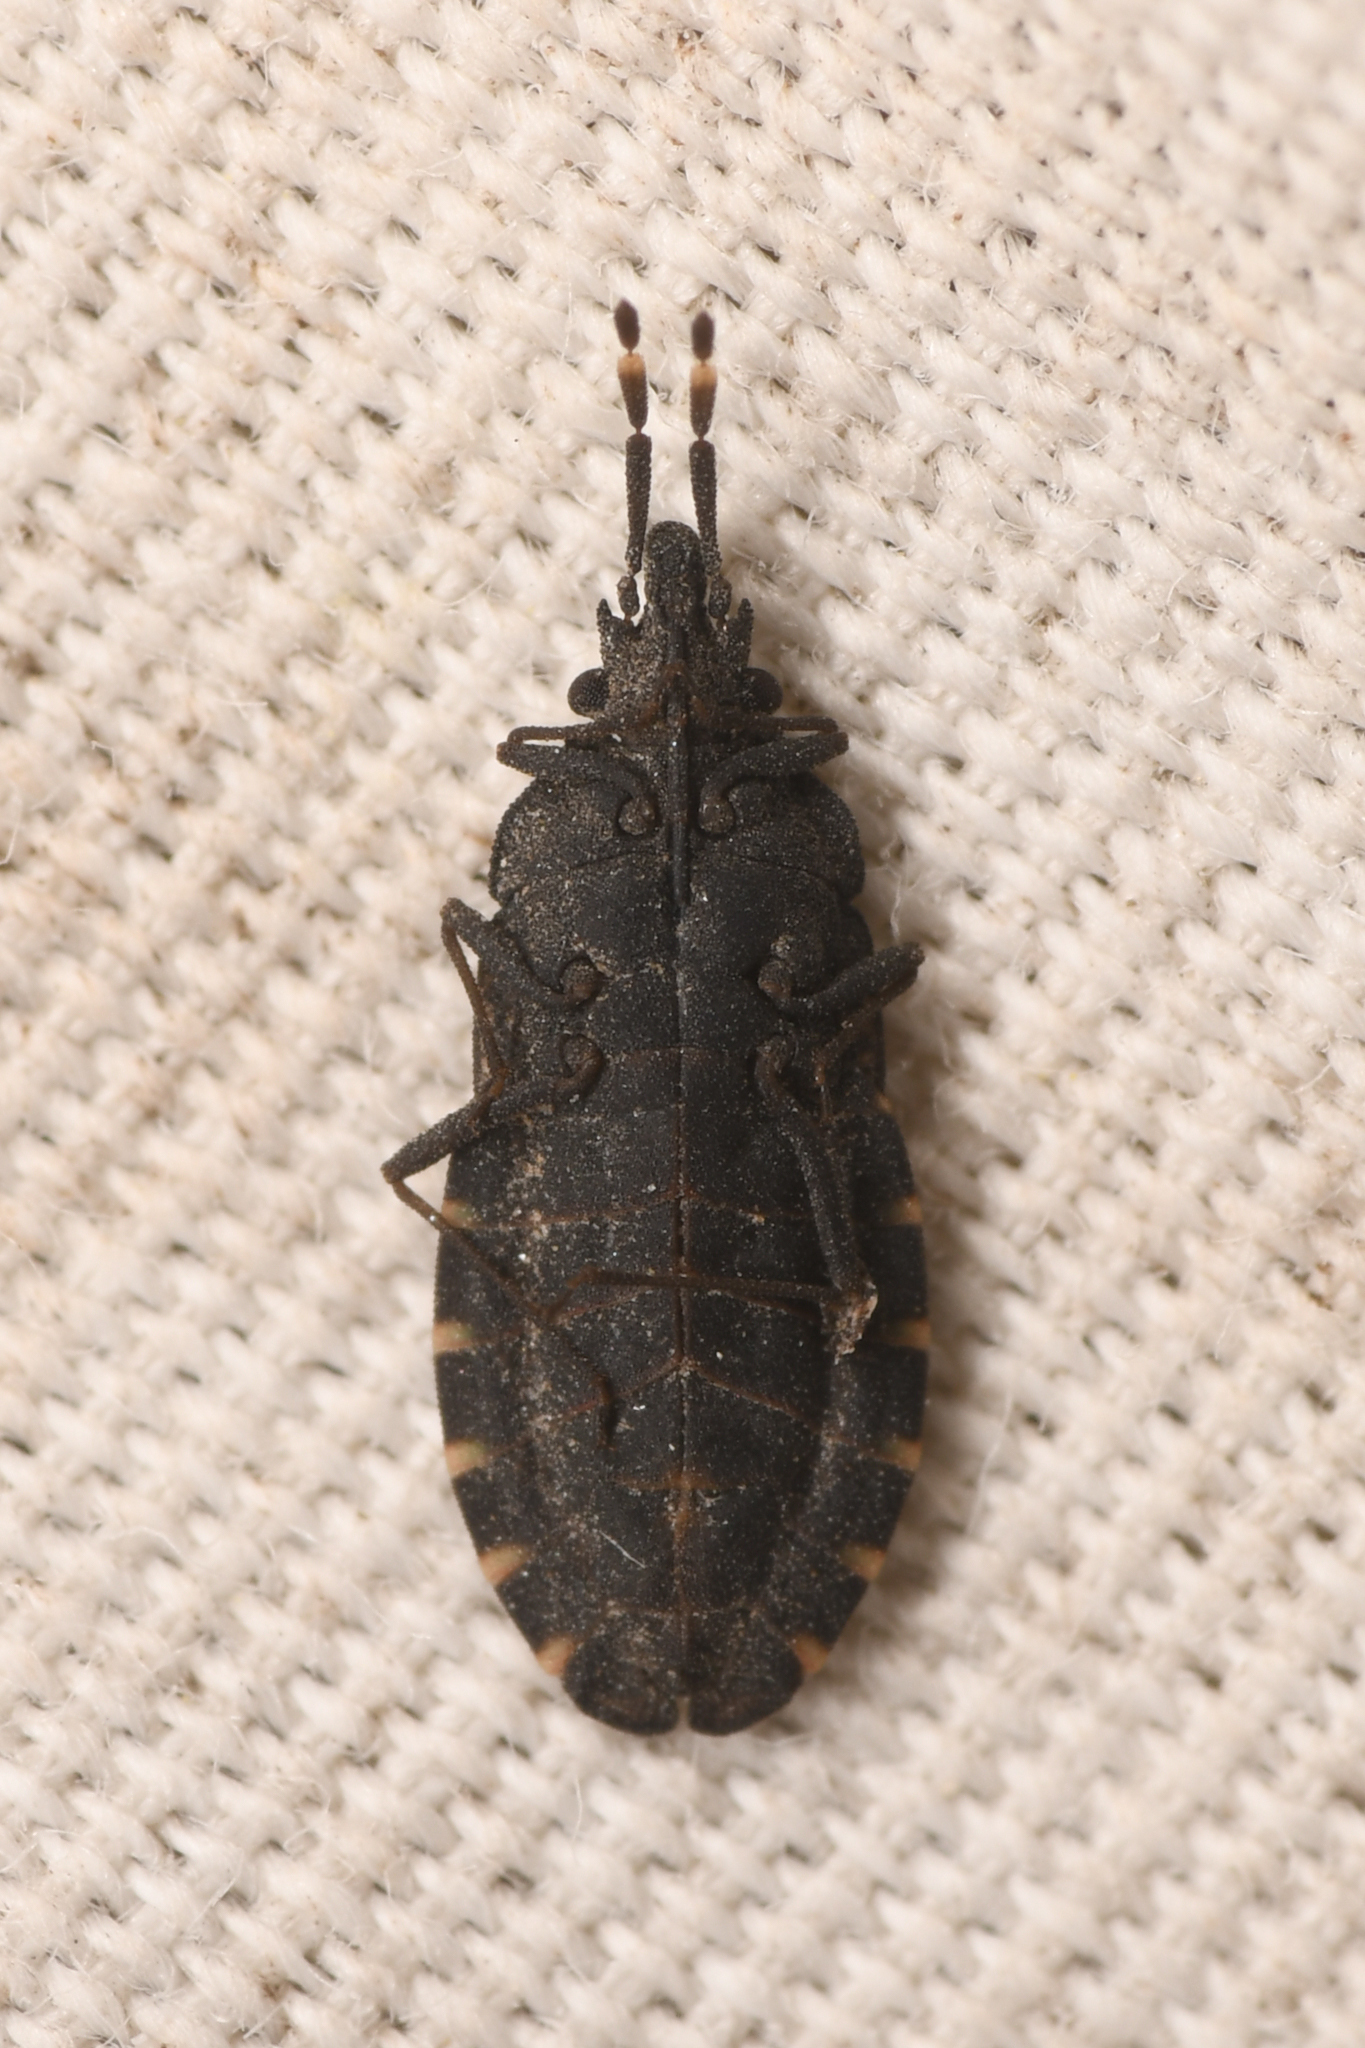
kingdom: Animalia
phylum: Arthropoda
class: Insecta
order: Hemiptera
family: Aradidae
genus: Aradus
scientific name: Aradus lugubris
